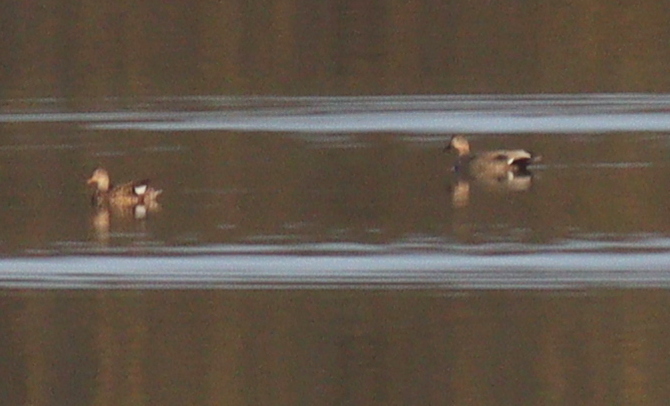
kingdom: Animalia
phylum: Chordata
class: Aves
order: Anseriformes
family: Anatidae
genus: Mareca
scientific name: Mareca strepera
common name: Gadwall
